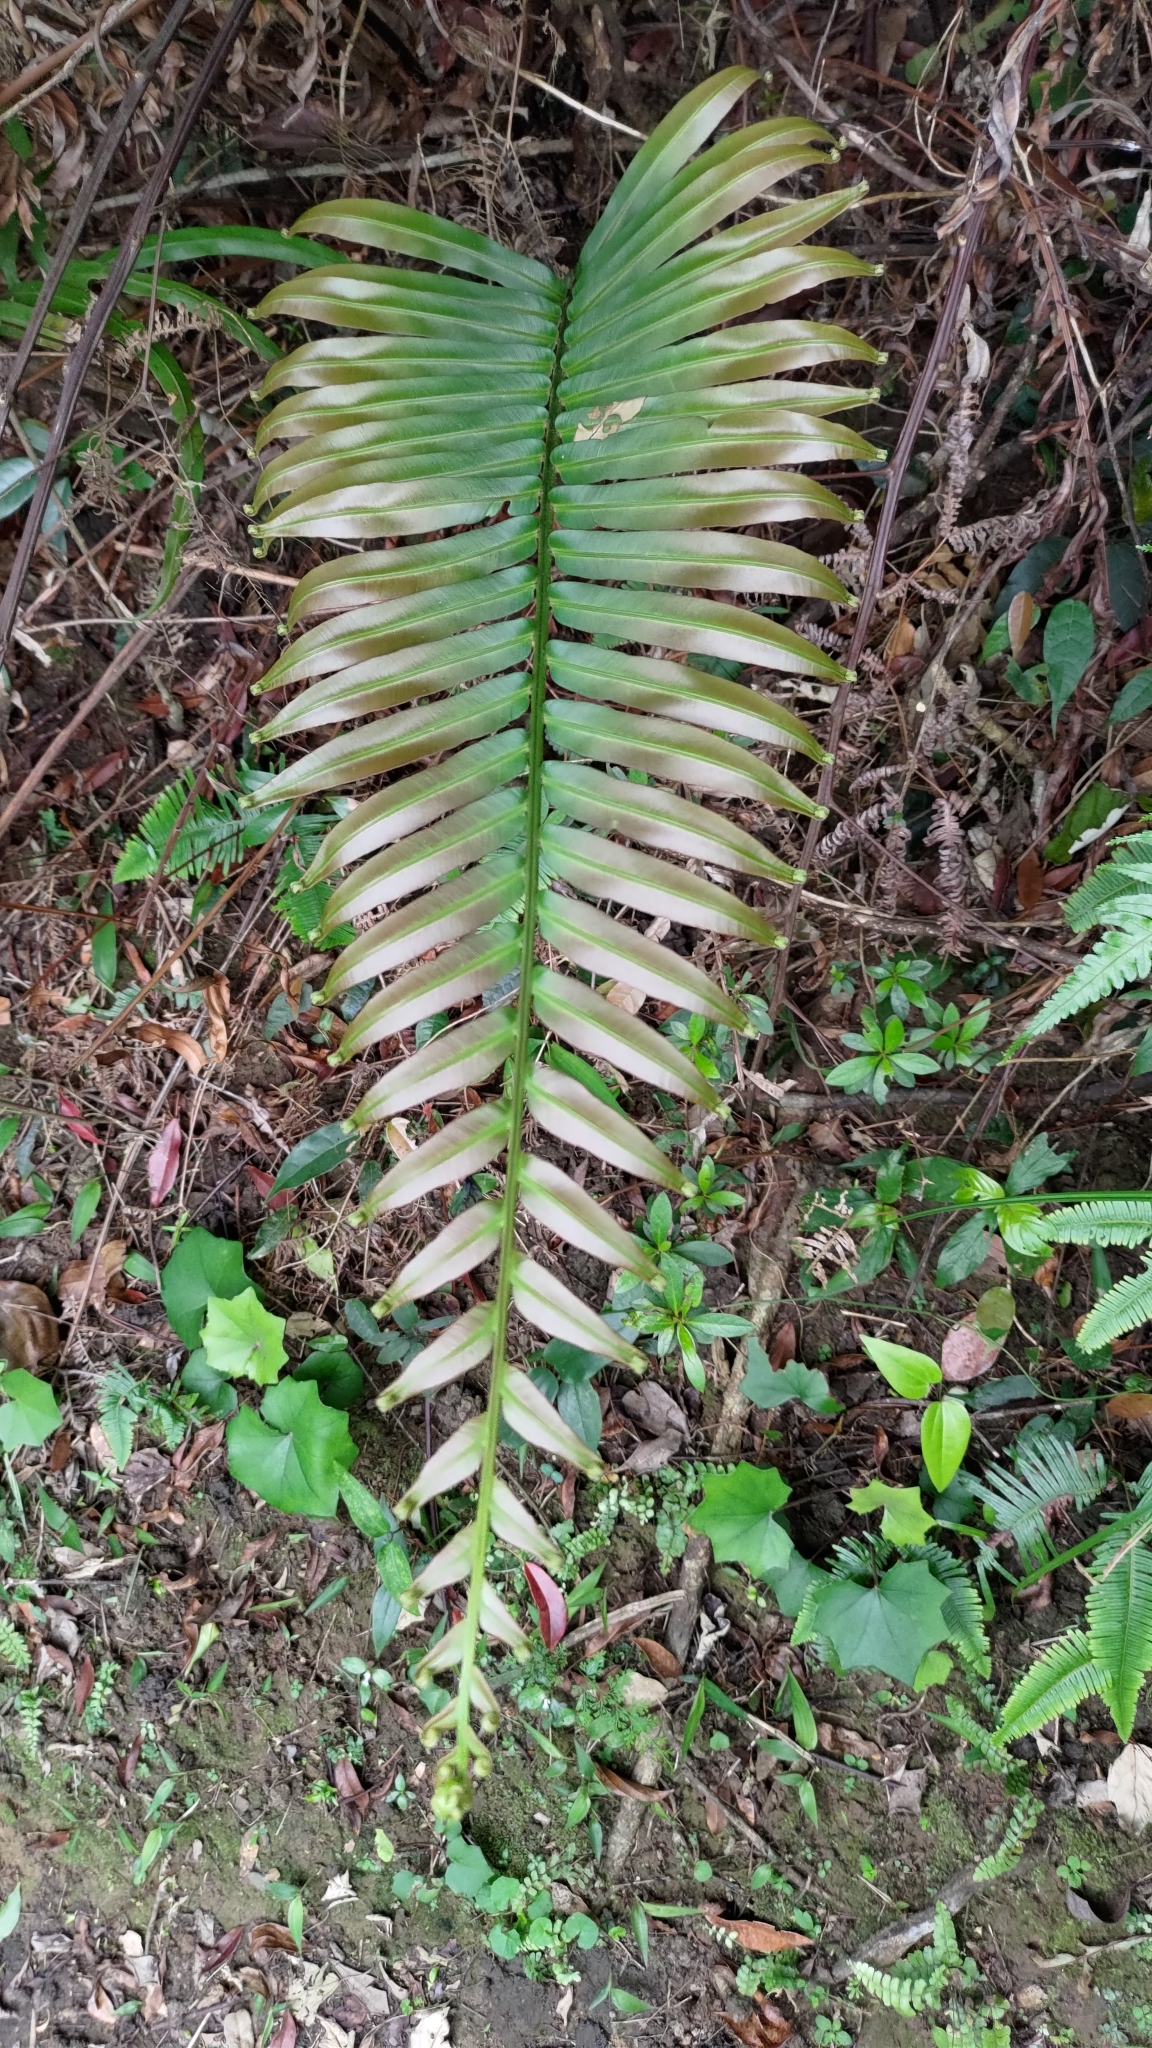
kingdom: Plantae
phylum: Tracheophyta
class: Polypodiopsida
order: Polypodiales
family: Blechnaceae
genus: Blechnopsis
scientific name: Blechnopsis orientalis
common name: Oriental blechnum
